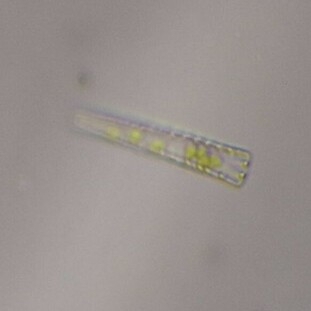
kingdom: Chromista
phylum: Ochrophyta
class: Bacillariophyceae
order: Tabellariales
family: Tabellariaceae
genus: Meridion
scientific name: Meridion
